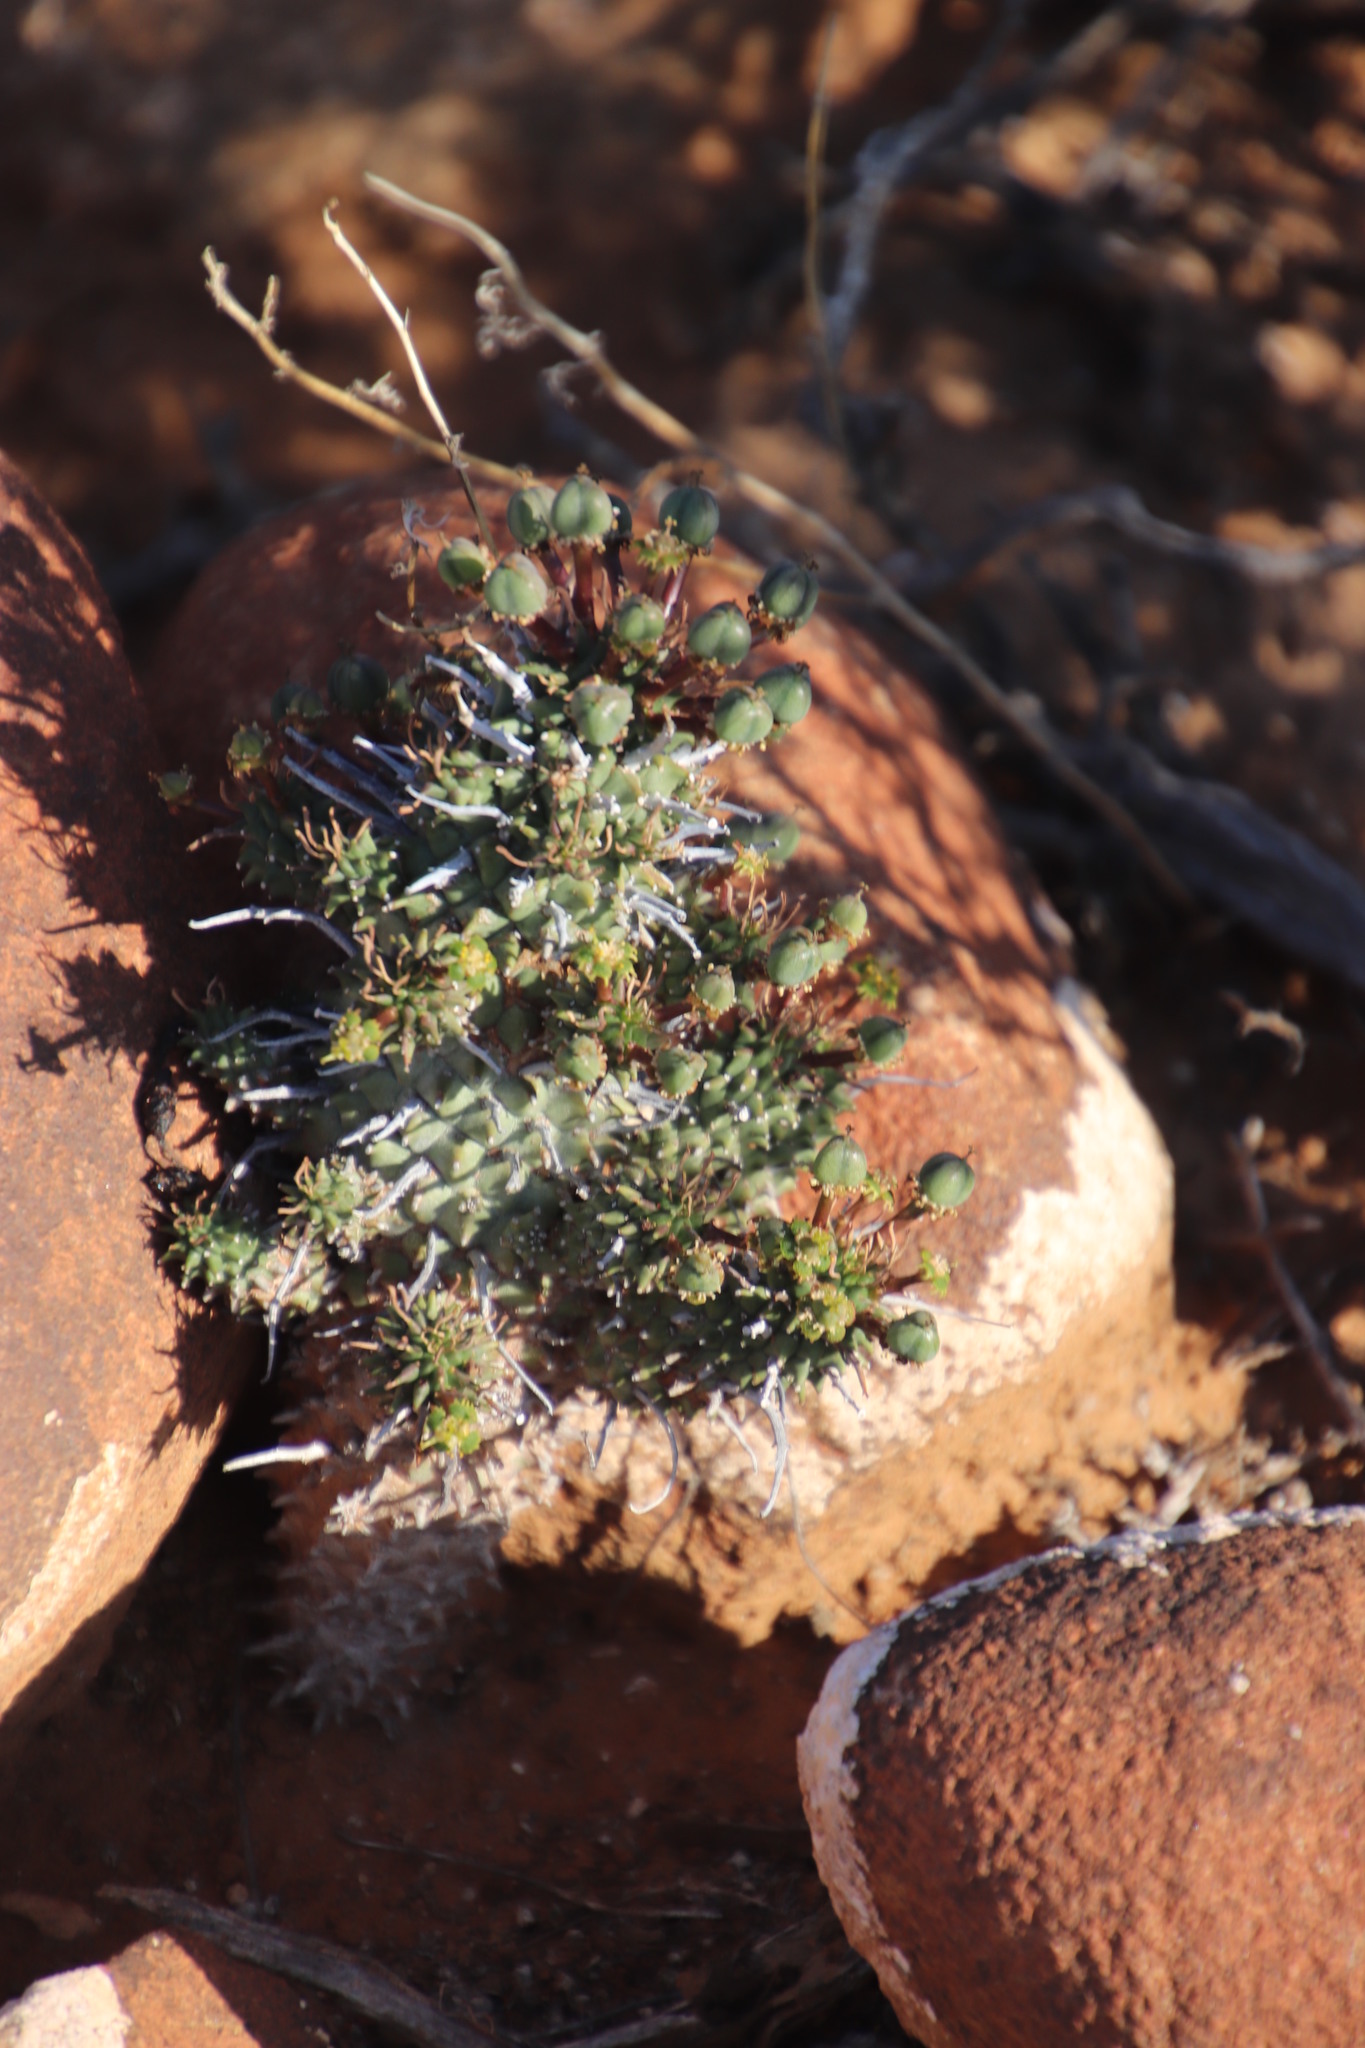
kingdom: Plantae
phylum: Tracheophyta
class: Magnoliopsida
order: Malpighiales
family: Euphorbiaceae
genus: Euphorbia
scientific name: Euphorbia multiceps
